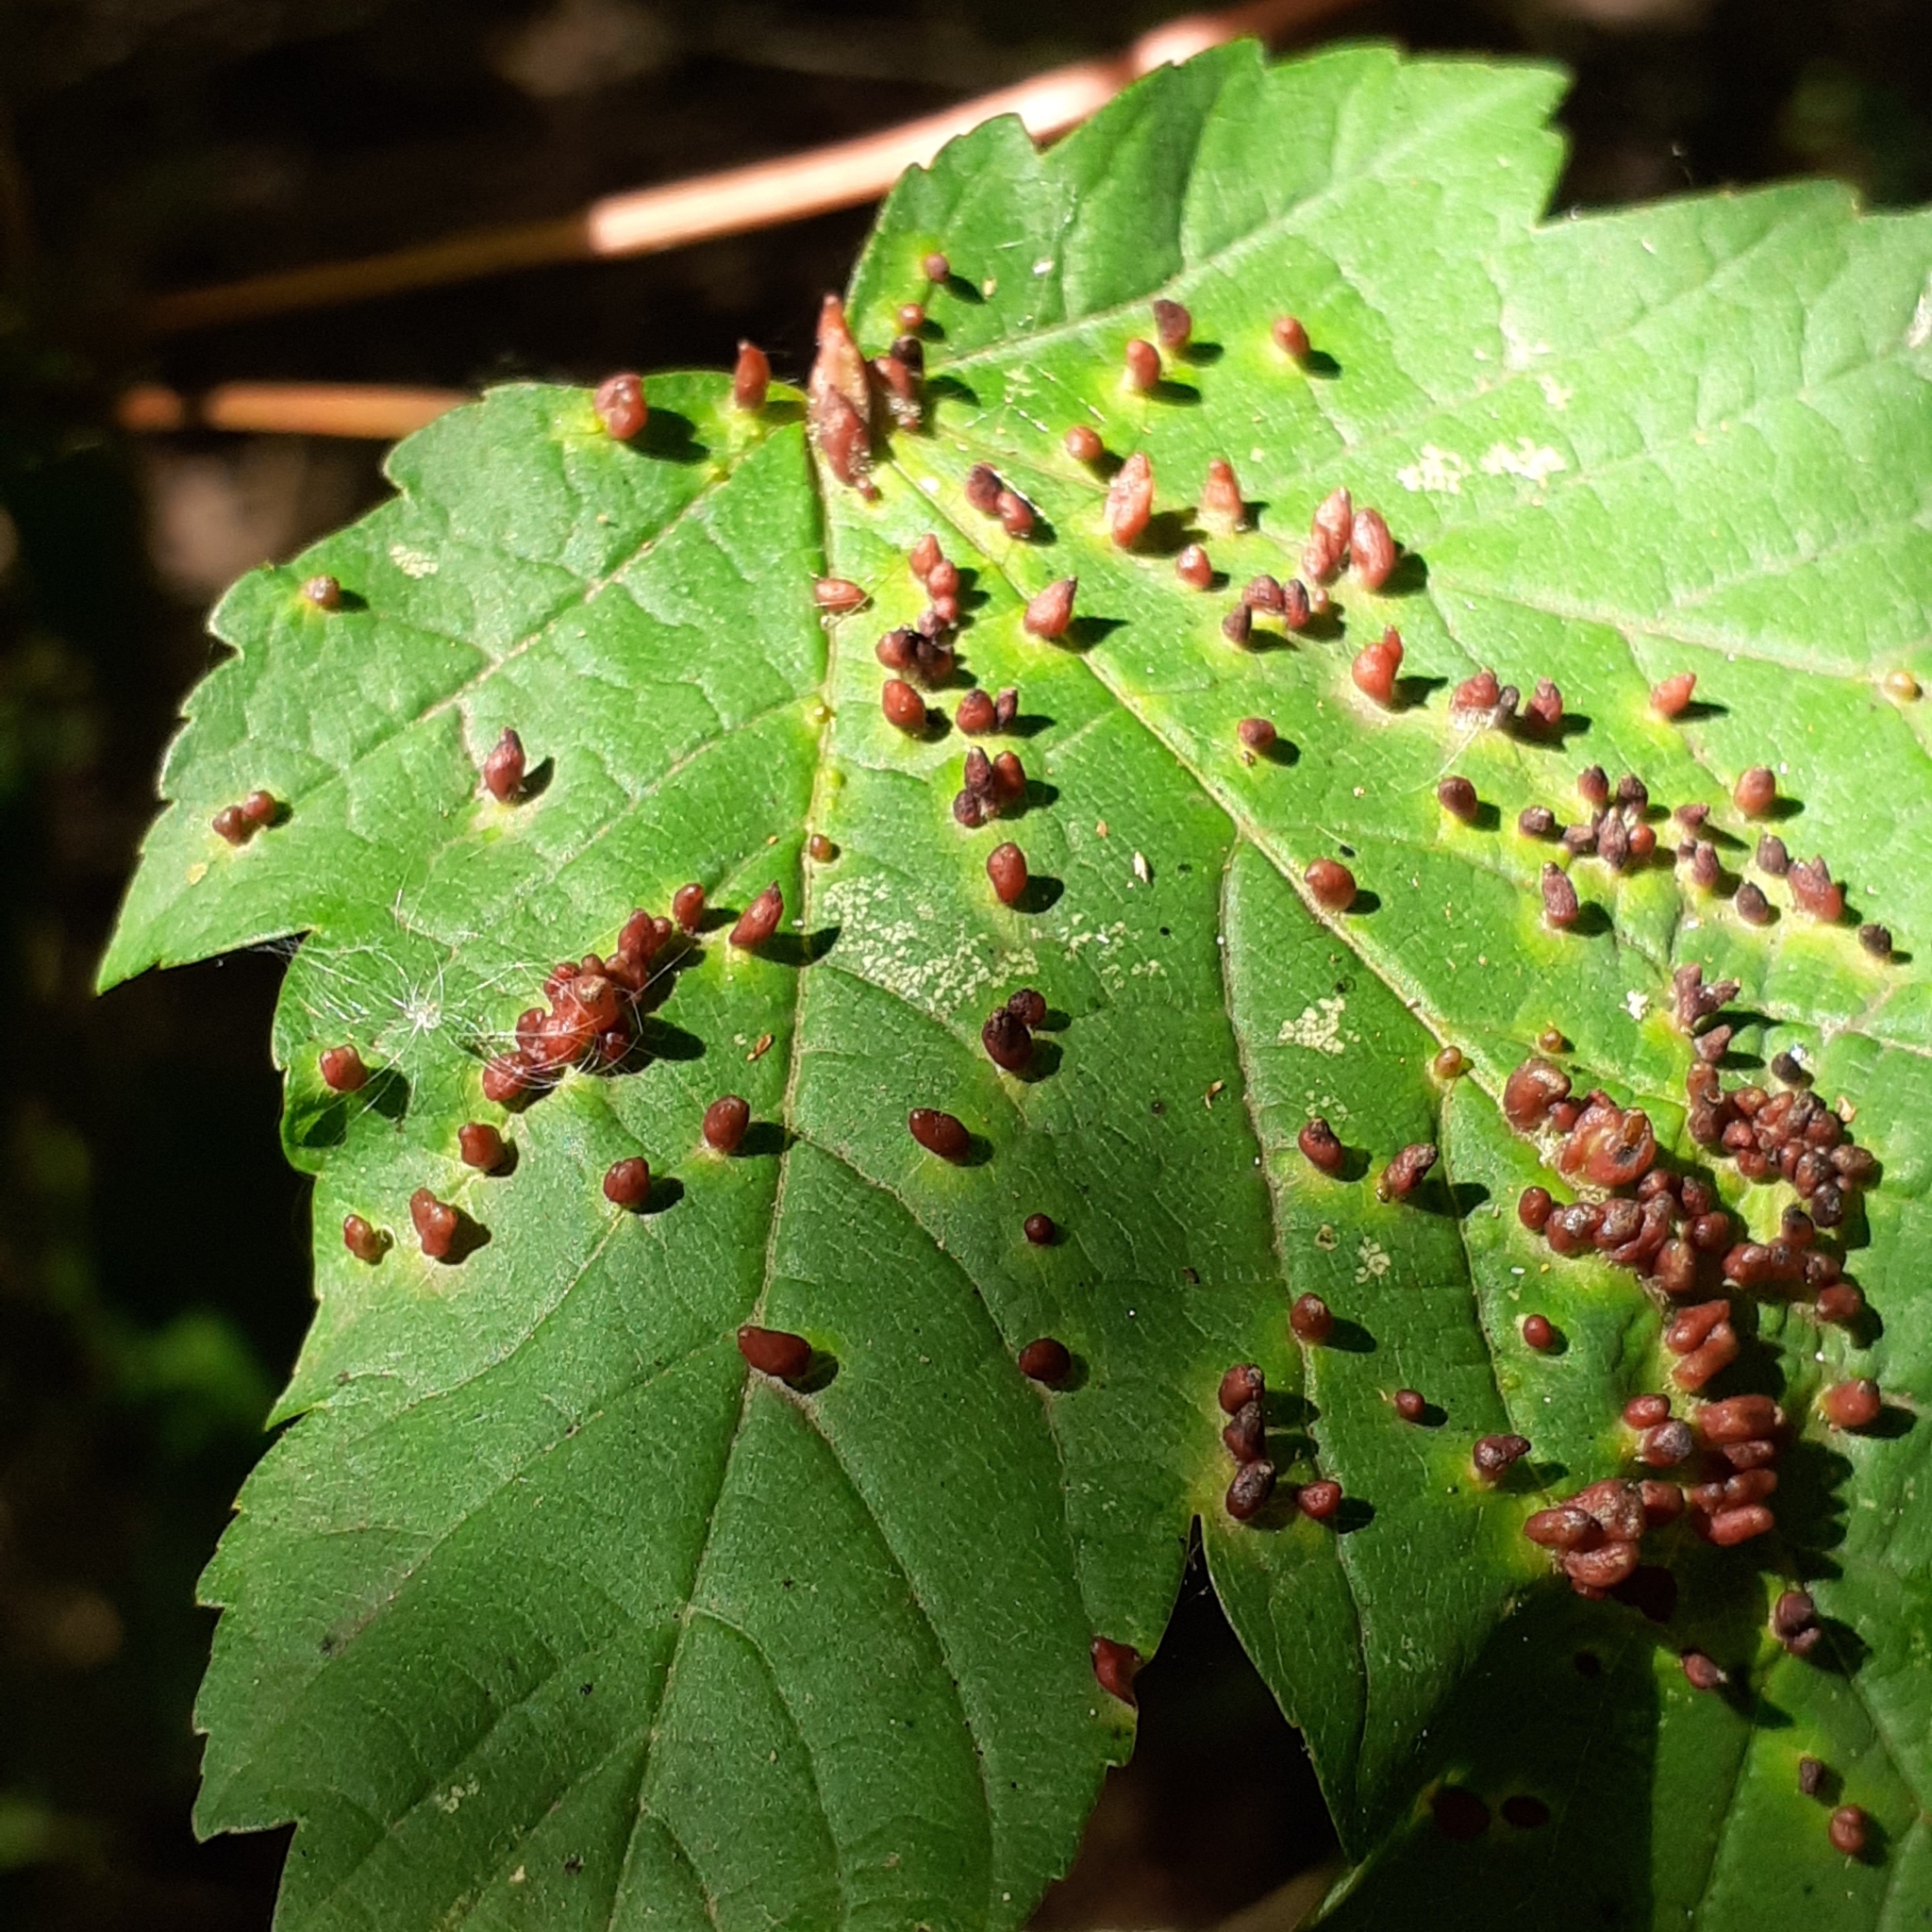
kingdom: Animalia
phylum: Arthropoda
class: Arachnida
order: Trombidiformes
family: Eriophyidae
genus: Aceria
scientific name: Aceria cephaloneus
